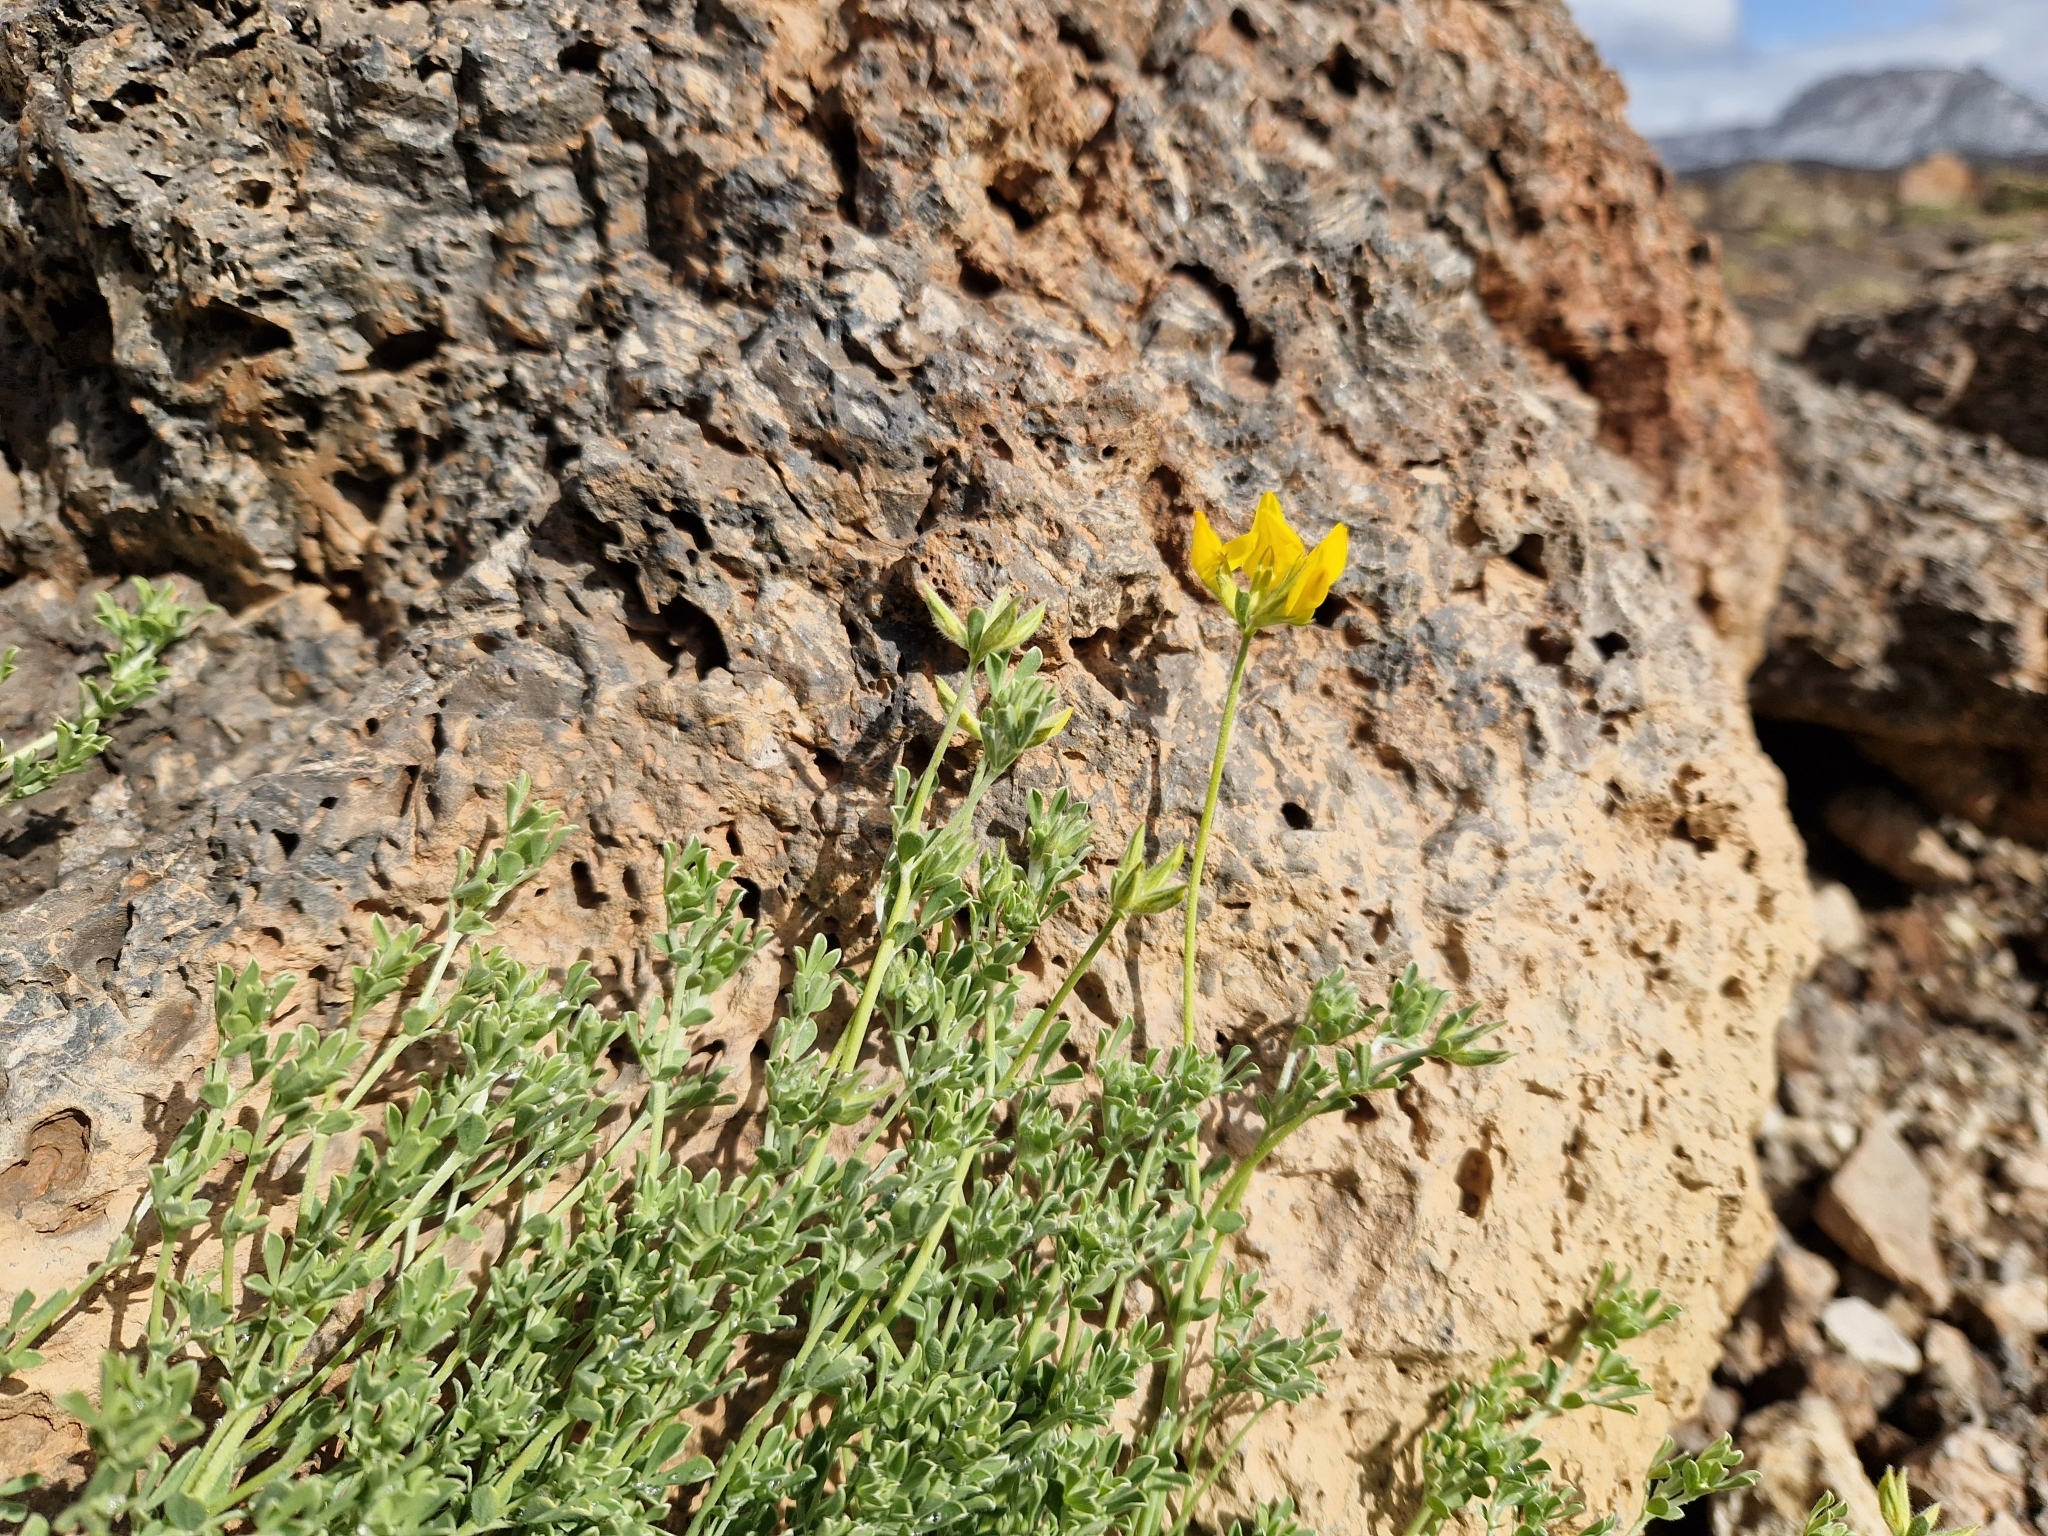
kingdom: Plantae
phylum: Tracheophyta
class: Magnoliopsida
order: Fabales
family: Fabaceae
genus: Lotus
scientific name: Lotus campylocladus
